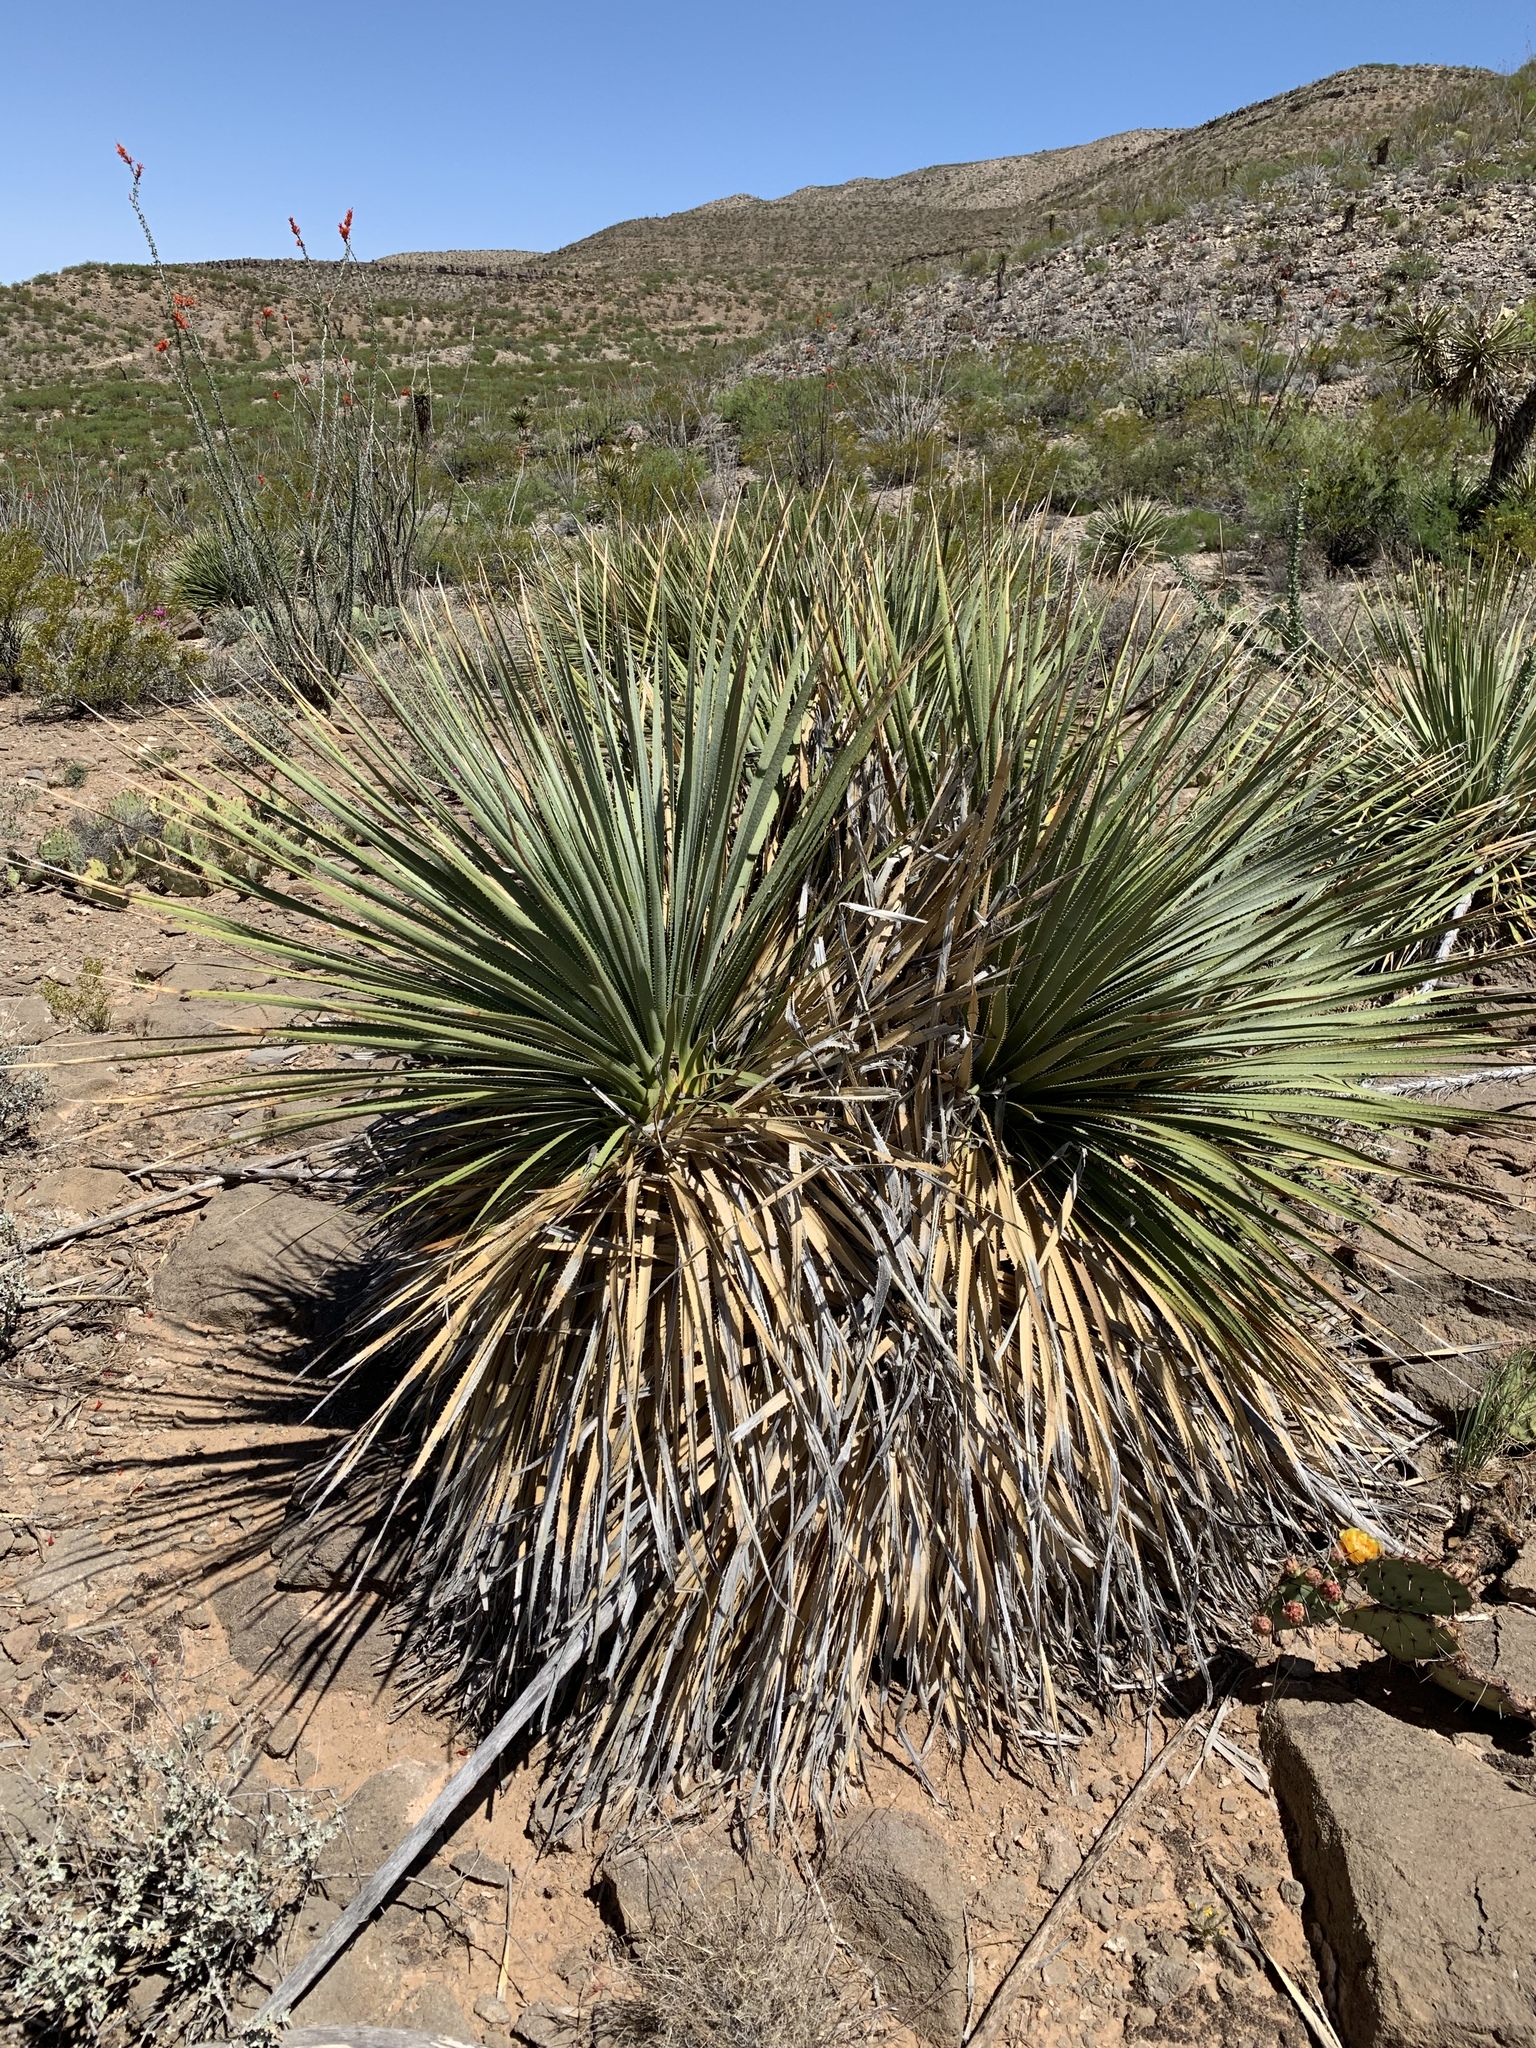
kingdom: Plantae
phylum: Tracheophyta
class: Liliopsida
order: Asparagales
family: Asparagaceae
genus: Dasylirion
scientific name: Dasylirion wheeleri
